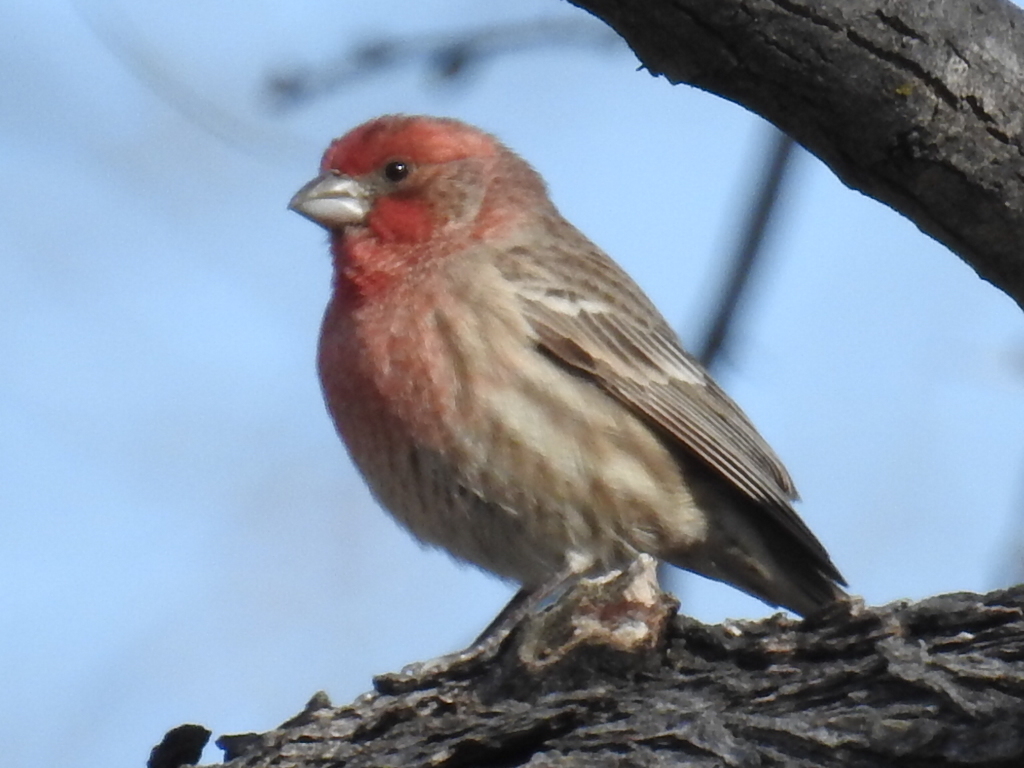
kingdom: Animalia
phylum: Chordata
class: Aves
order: Passeriformes
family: Fringillidae
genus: Haemorhous
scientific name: Haemorhous mexicanus
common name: House finch
